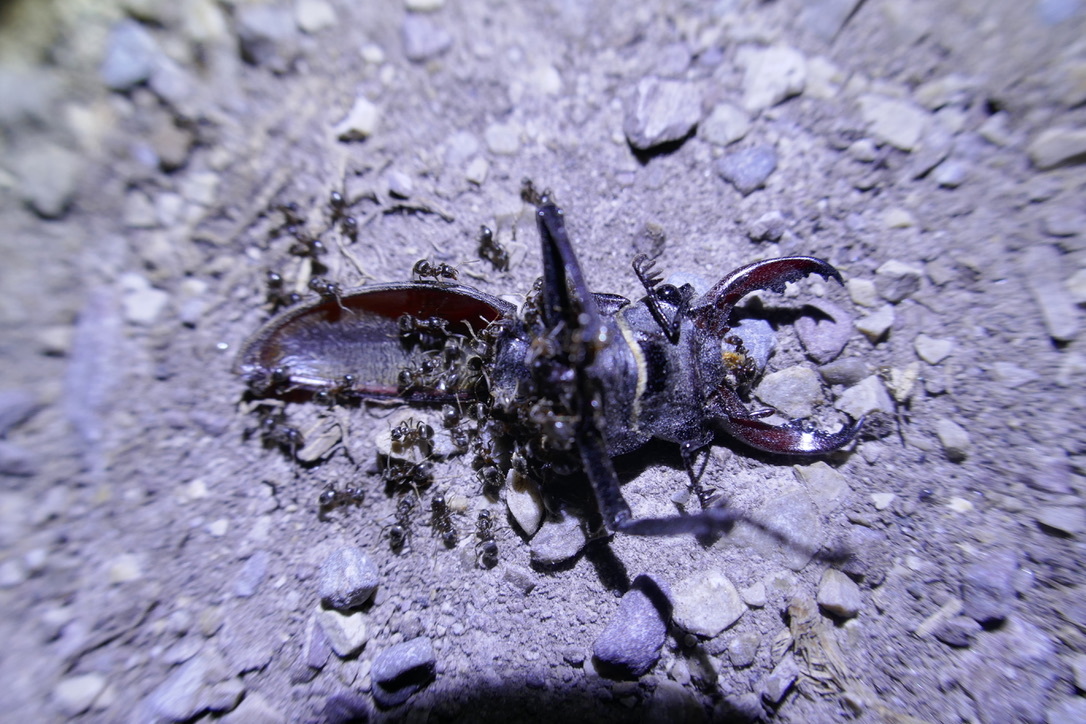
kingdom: Animalia
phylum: Arthropoda
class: Insecta
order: Coleoptera
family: Lucanidae
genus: Lucanus
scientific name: Lucanus cervus
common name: Stag beetle
